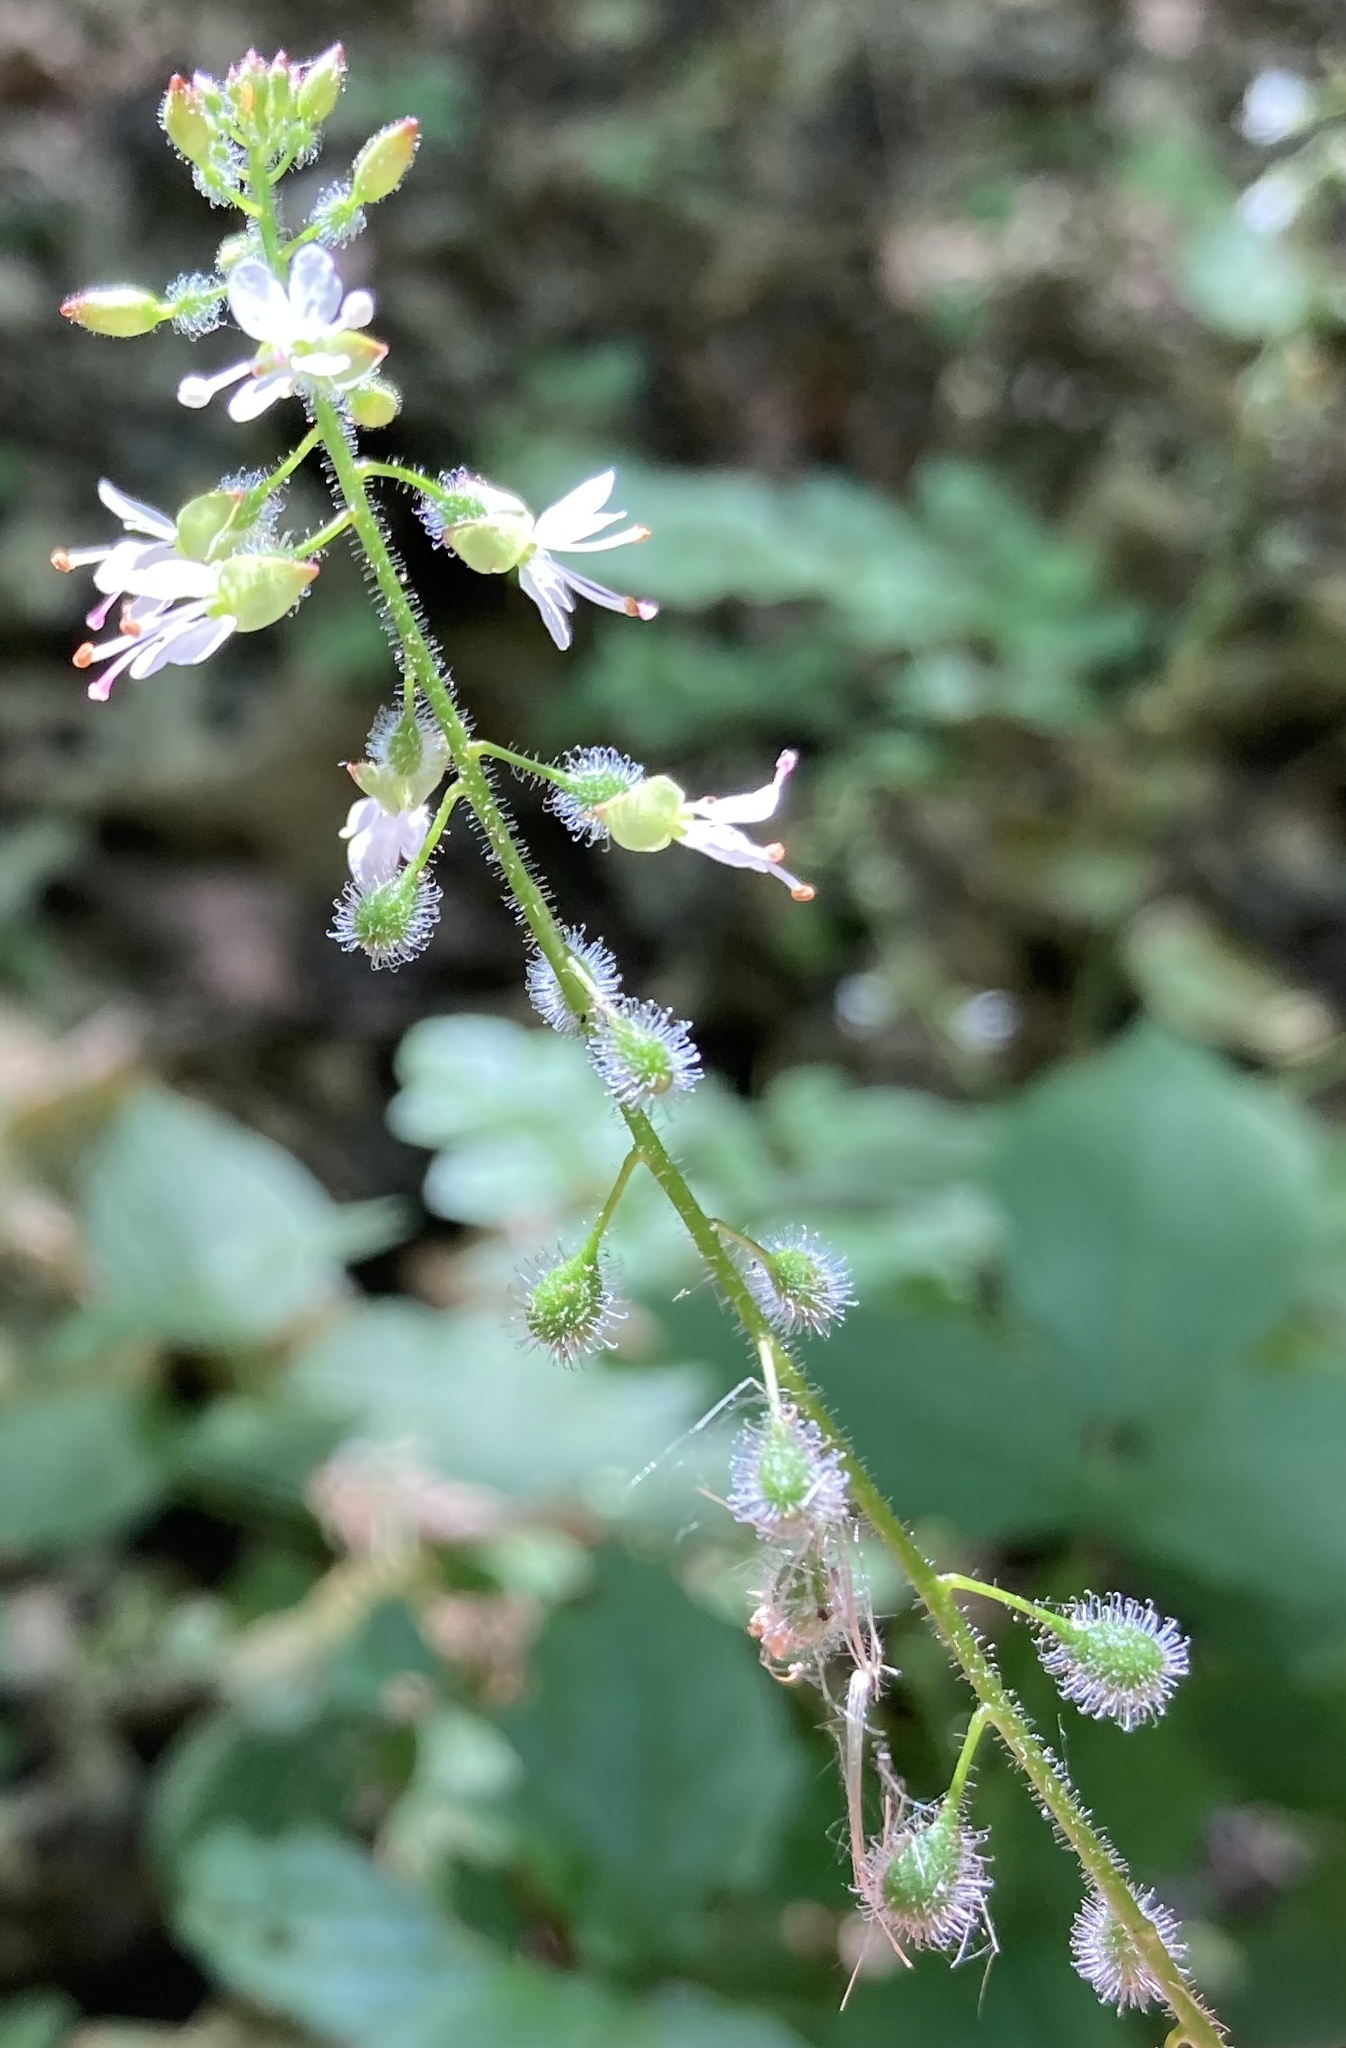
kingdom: Plantae
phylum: Tracheophyta
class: Magnoliopsida
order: Myrtales
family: Onagraceae
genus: Circaea
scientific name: Circaea lutetiana
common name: Enchanter's-nightshade
